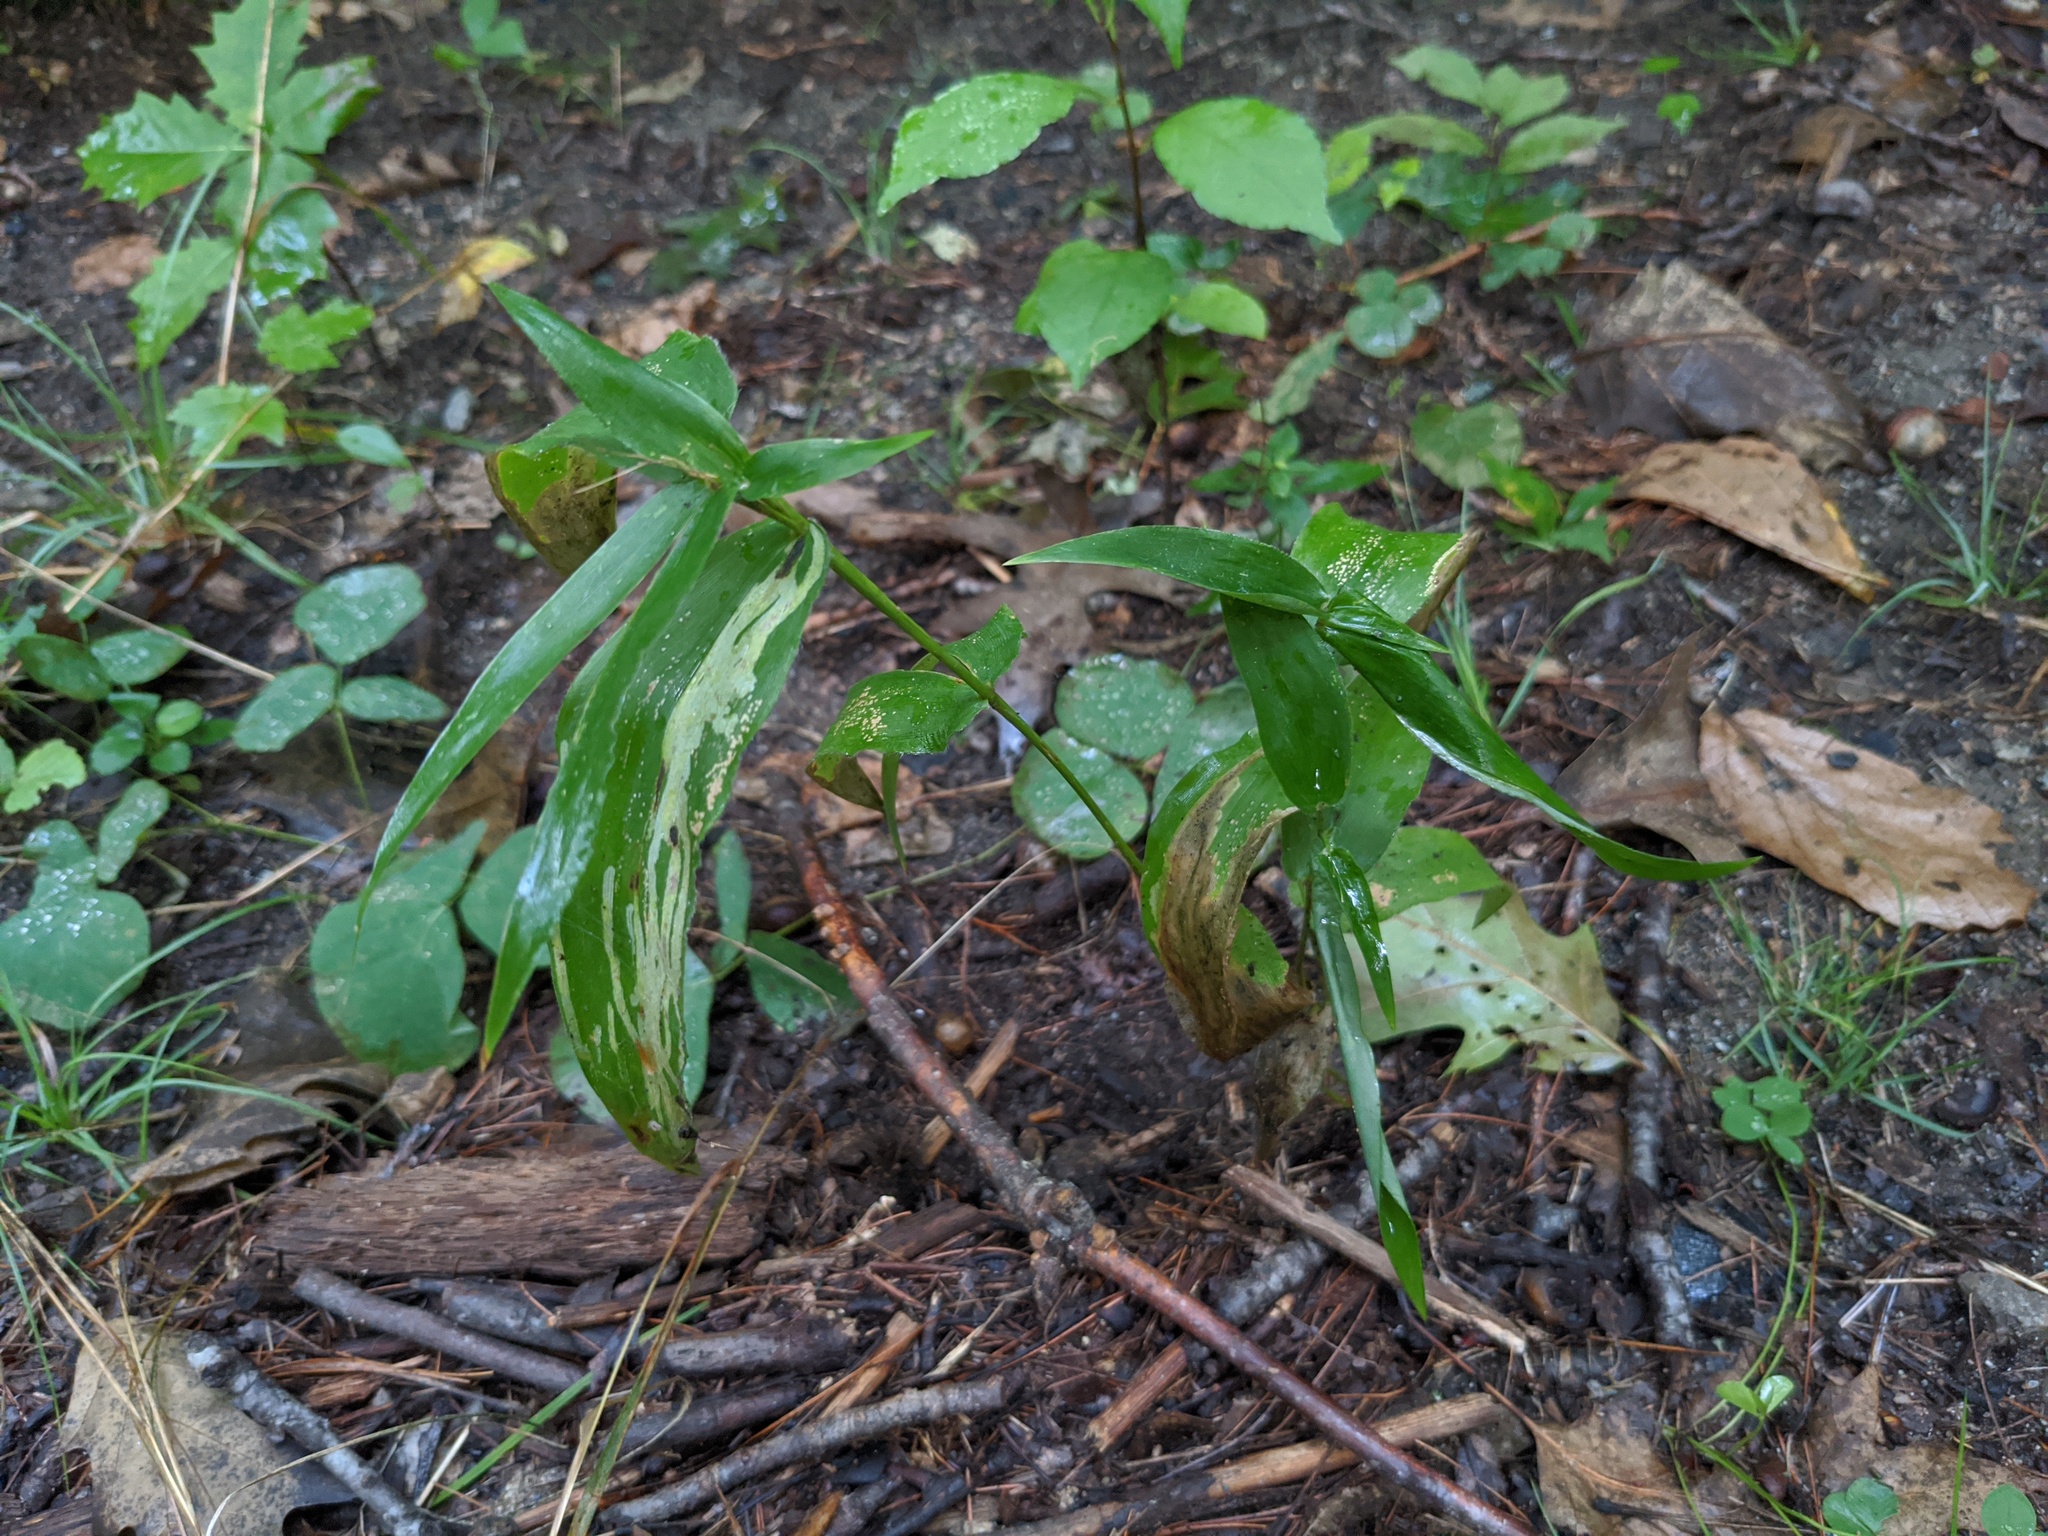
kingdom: Plantae
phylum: Tracheophyta
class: Liliopsida
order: Poales
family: Poaceae
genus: Dichanthelium
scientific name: Dichanthelium clandestinum
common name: Deer-tongue grass
